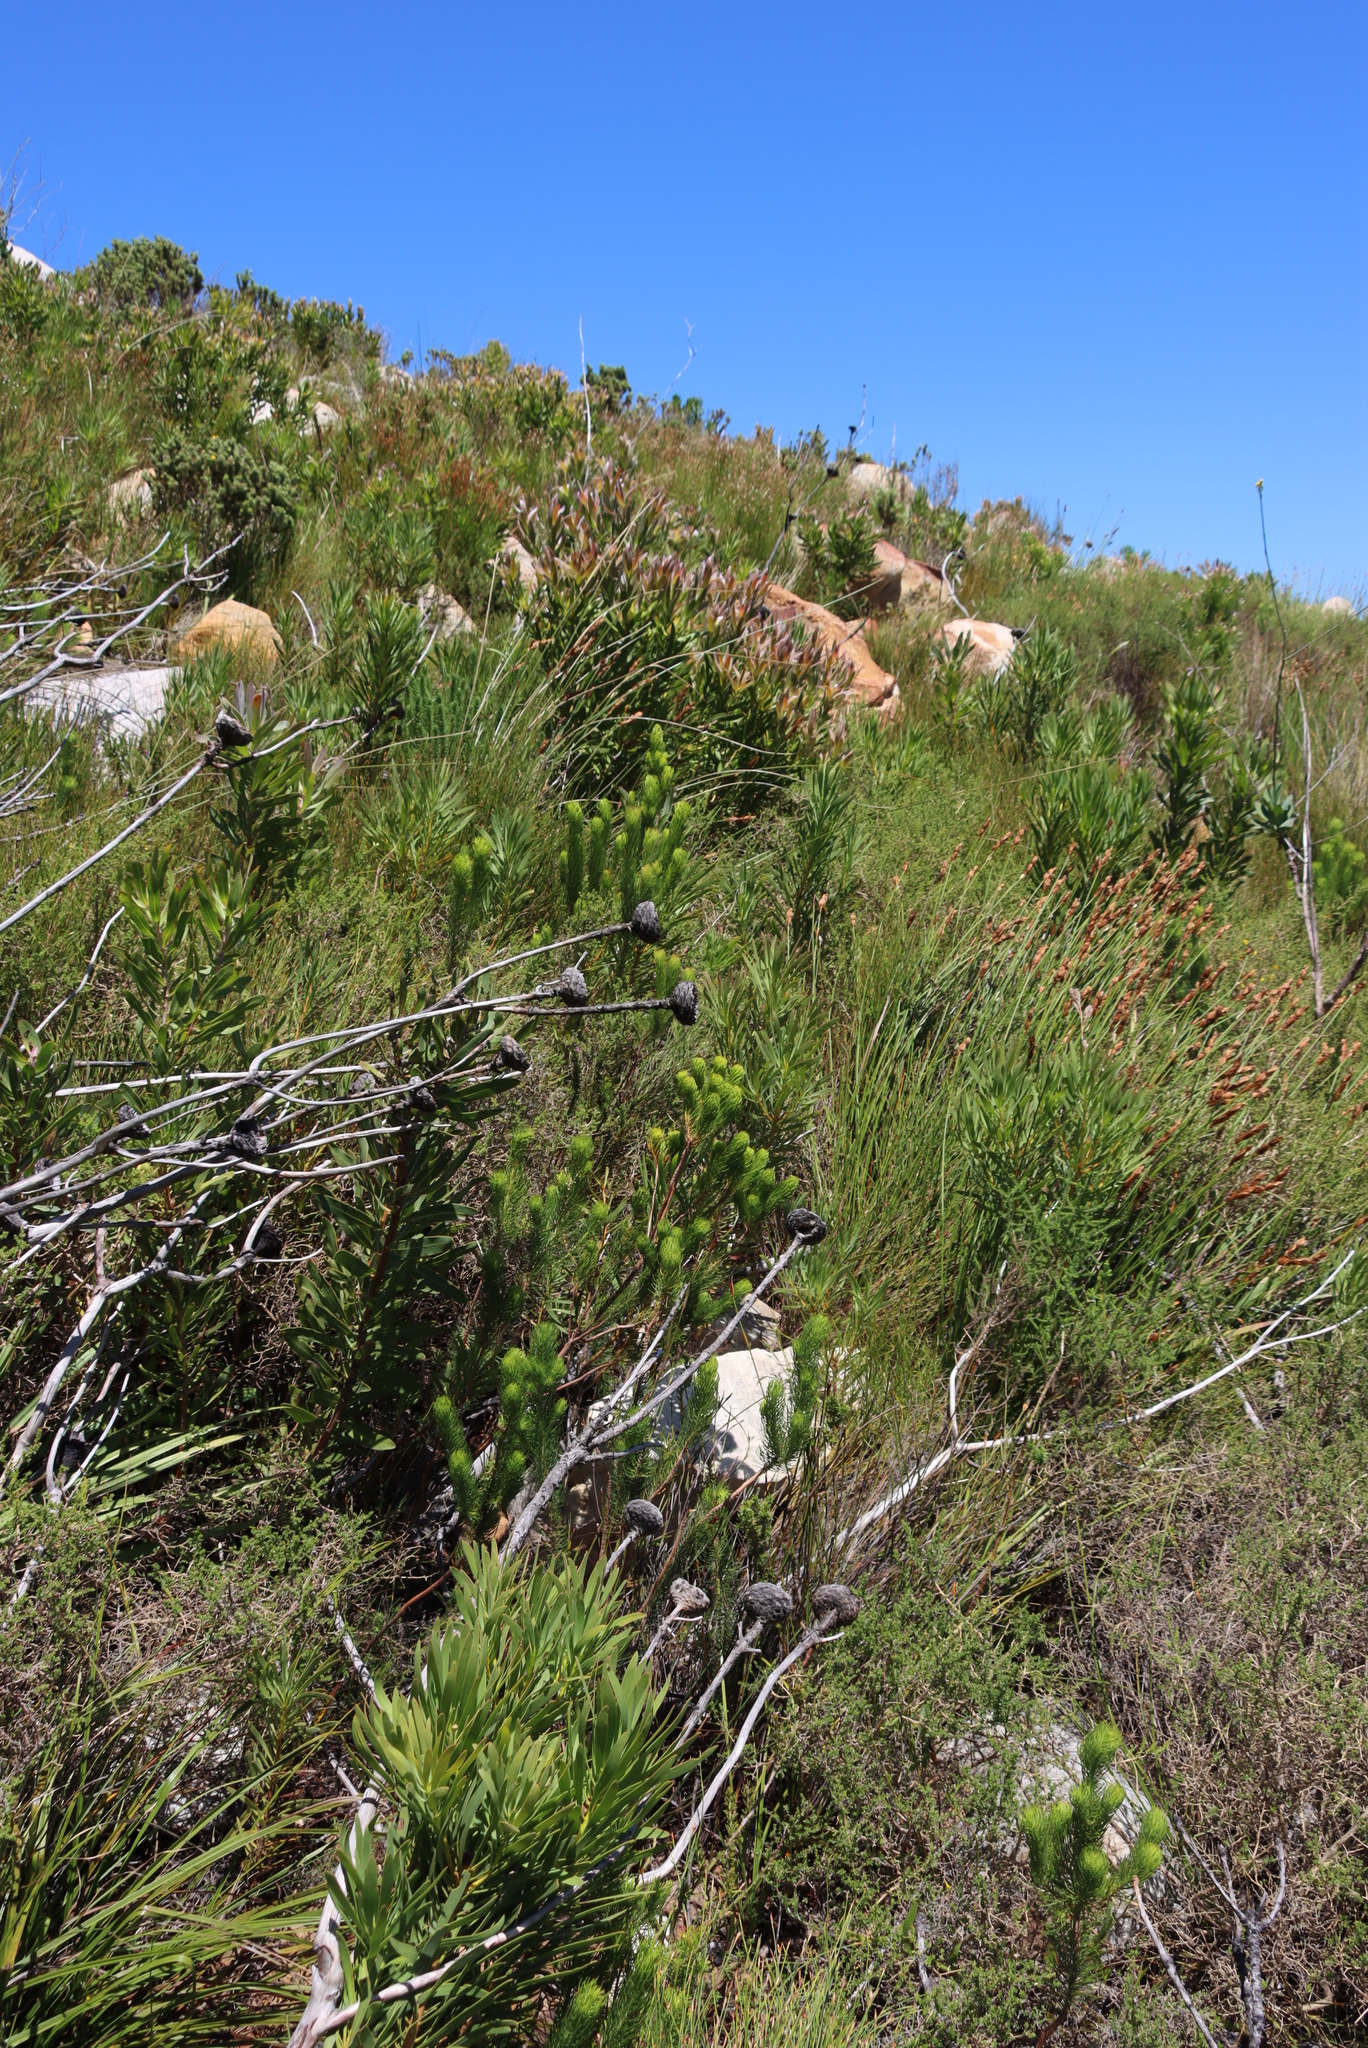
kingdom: Plantae
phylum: Tracheophyta
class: Magnoliopsida
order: Ericales
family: Ericaceae
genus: Erica
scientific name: Erica viscaria
